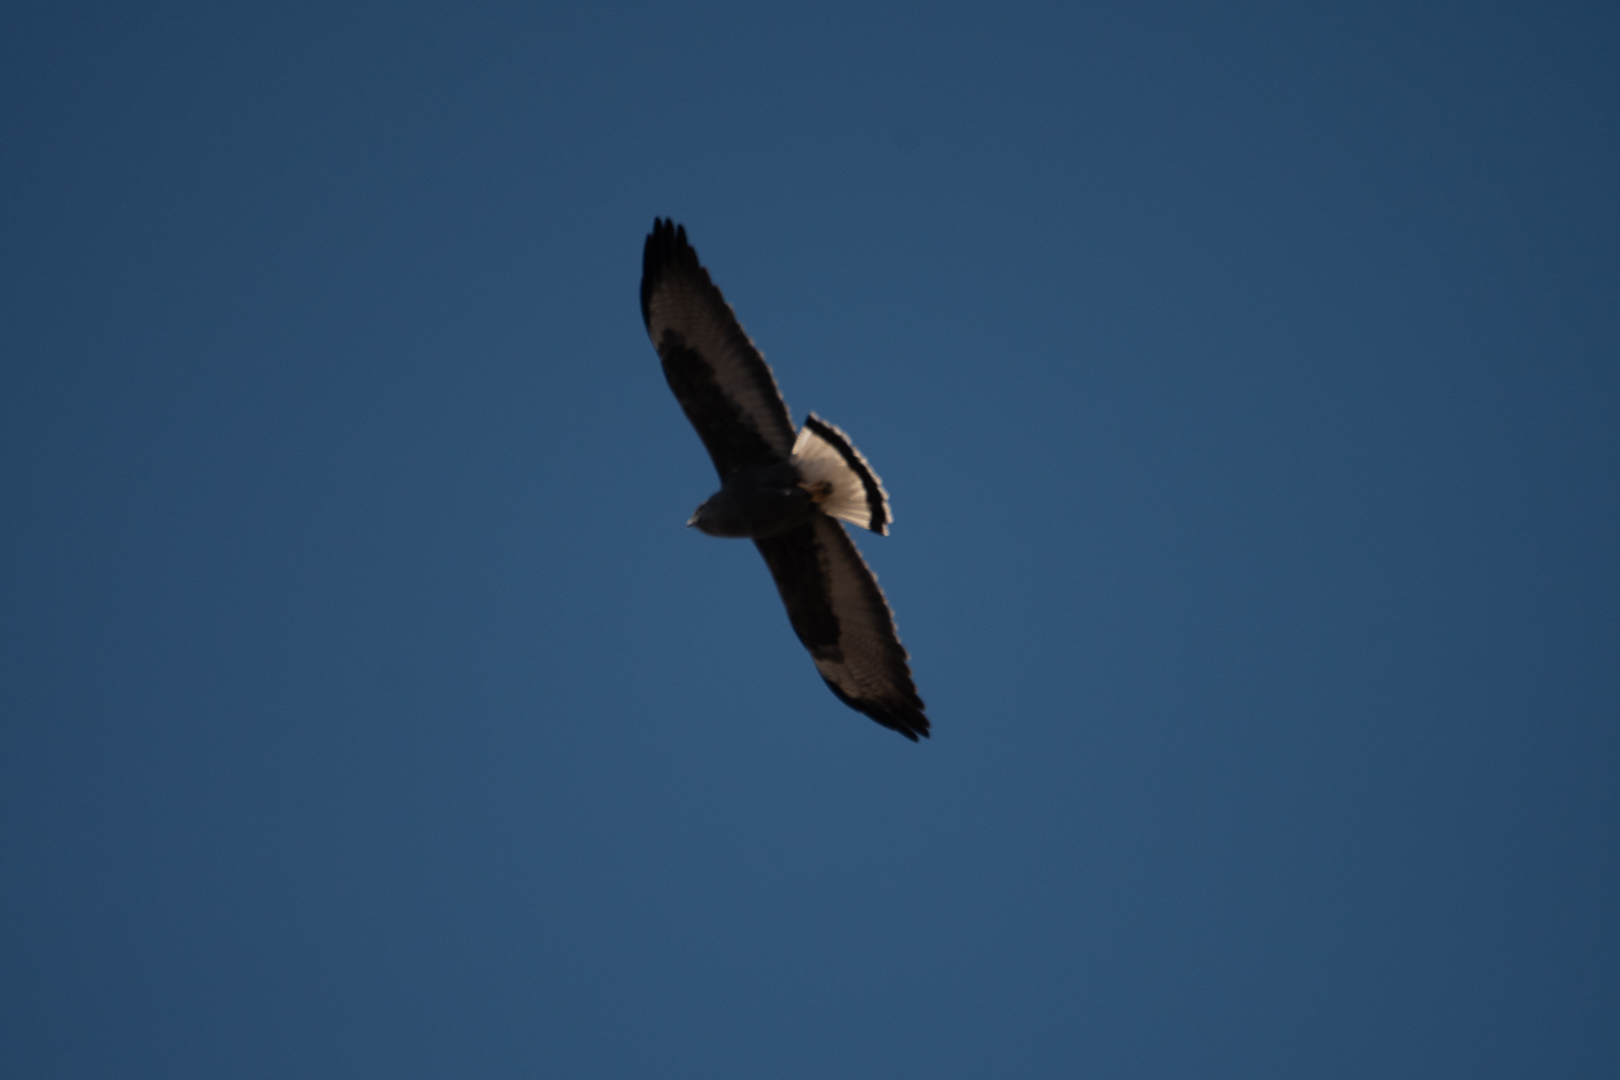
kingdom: Animalia
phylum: Chordata
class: Aves
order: Accipitriformes
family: Accipitridae
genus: Buteo
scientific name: Buteo polyosoma
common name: Variable hawk
